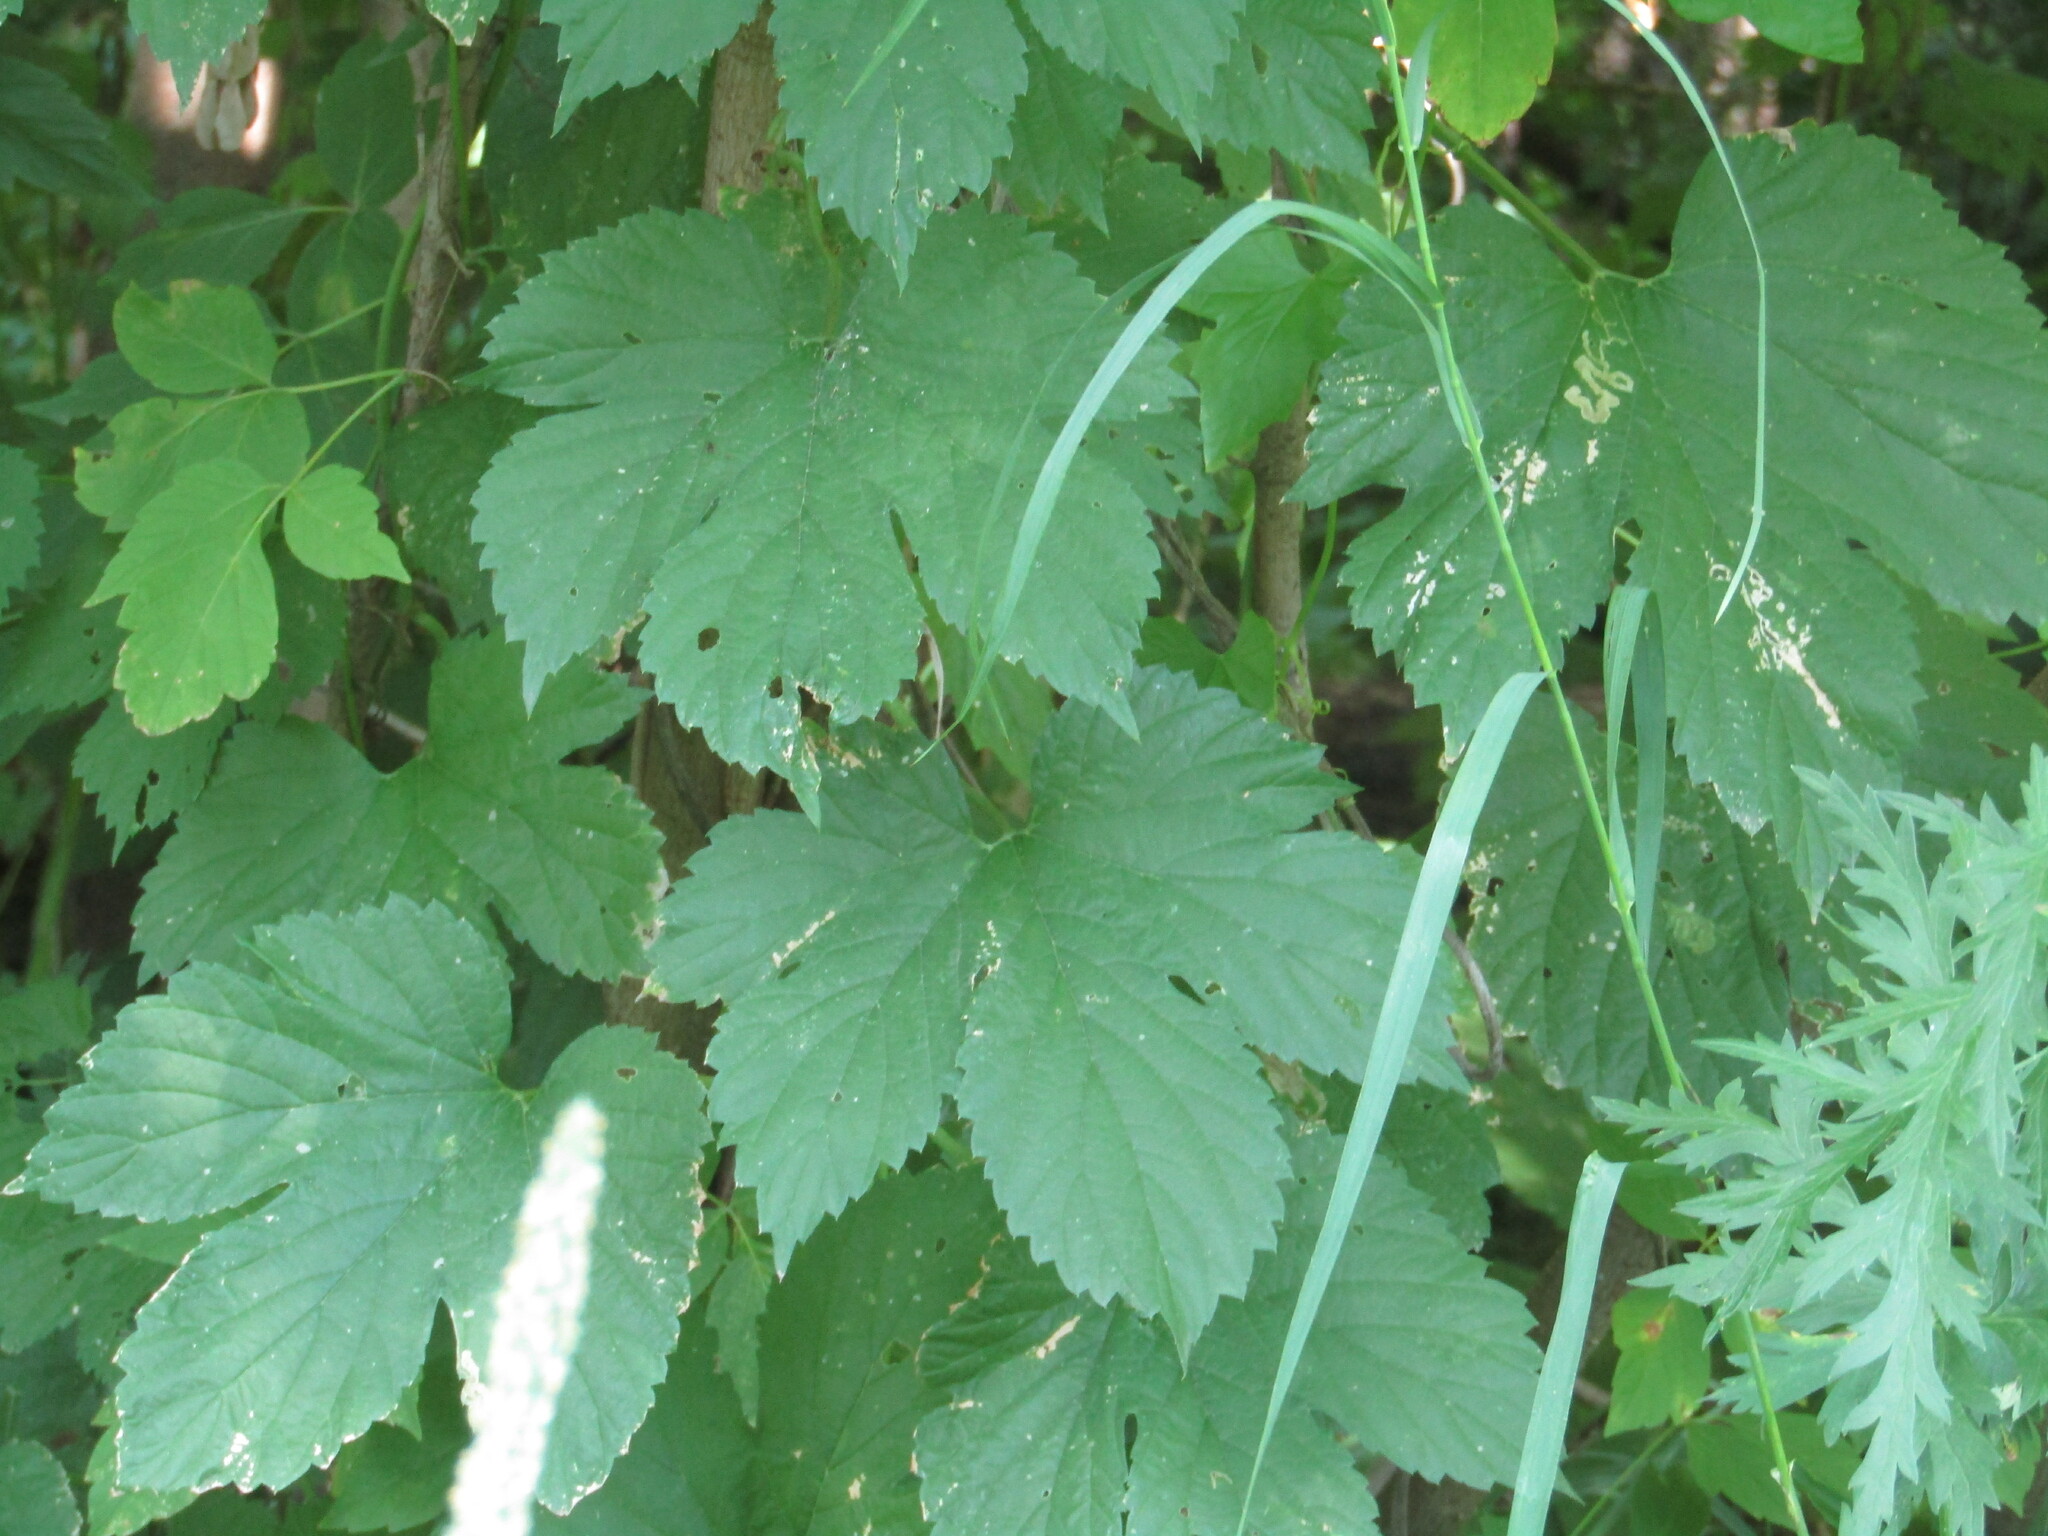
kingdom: Plantae
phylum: Tracheophyta
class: Magnoliopsida
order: Rosales
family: Cannabaceae
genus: Humulus
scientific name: Humulus lupulus
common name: Hop
